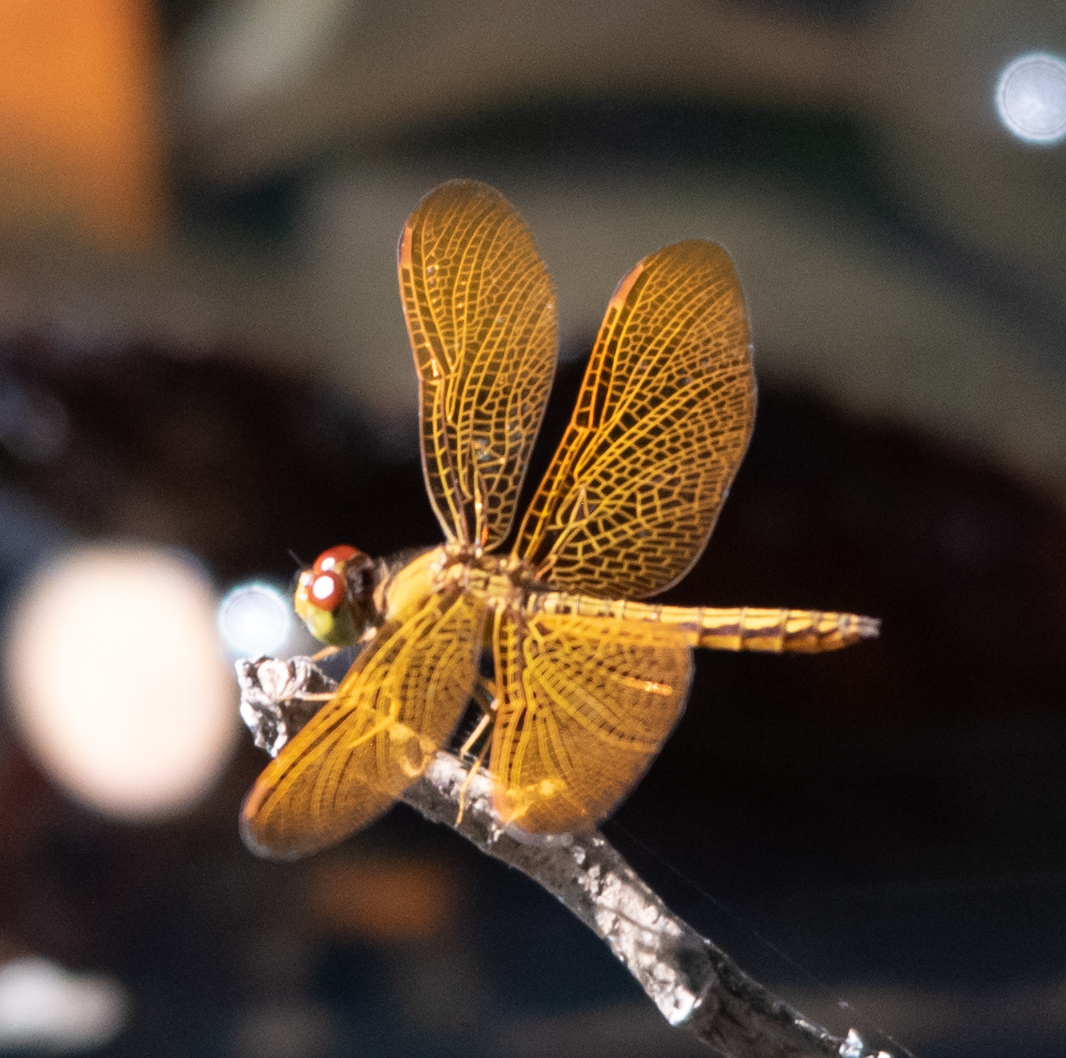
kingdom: Animalia
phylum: Arthropoda
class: Insecta
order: Odonata
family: Libellulidae
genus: Perithemis
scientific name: Perithemis electra
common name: Golden amberwing
